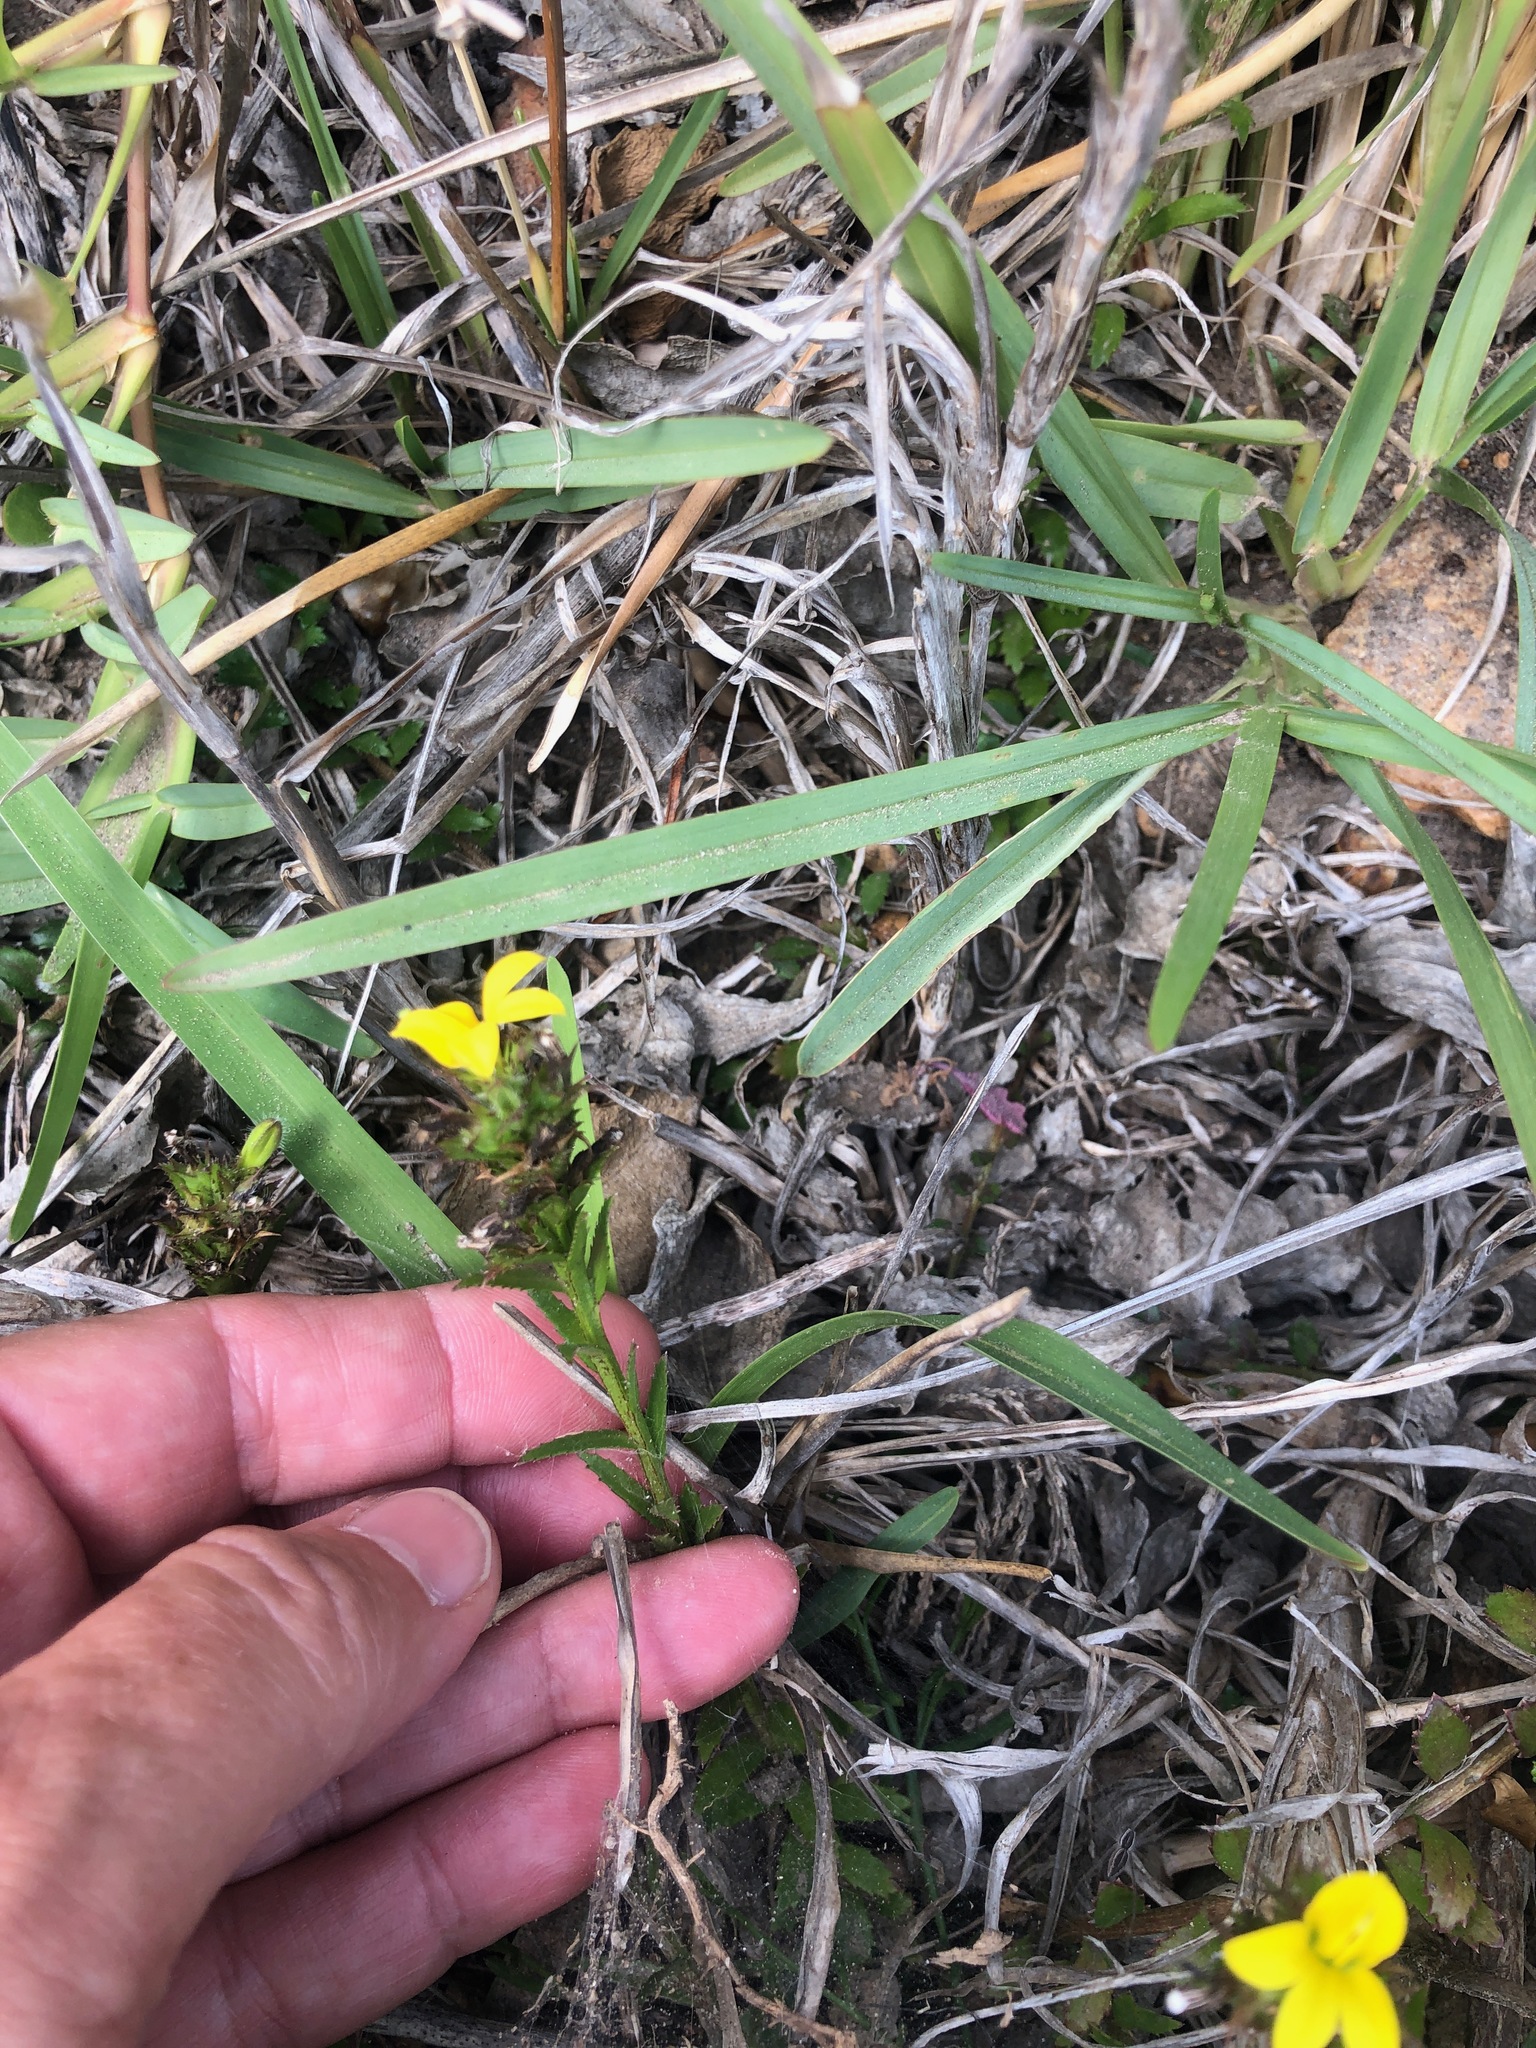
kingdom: Plantae
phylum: Tracheophyta
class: Magnoliopsida
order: Asterales
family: Campanulaceae
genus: Monopsis
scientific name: Monopsis lutea
